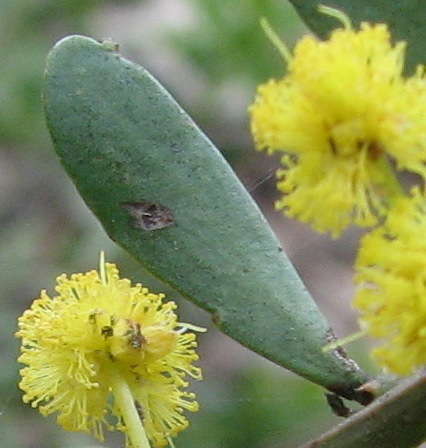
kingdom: Plantae
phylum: Tracheophyta
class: Magnoliopsida
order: Fabales
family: Fabaceae
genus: Acacia
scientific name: Acacia acinacea
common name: Gold-dust acacia
